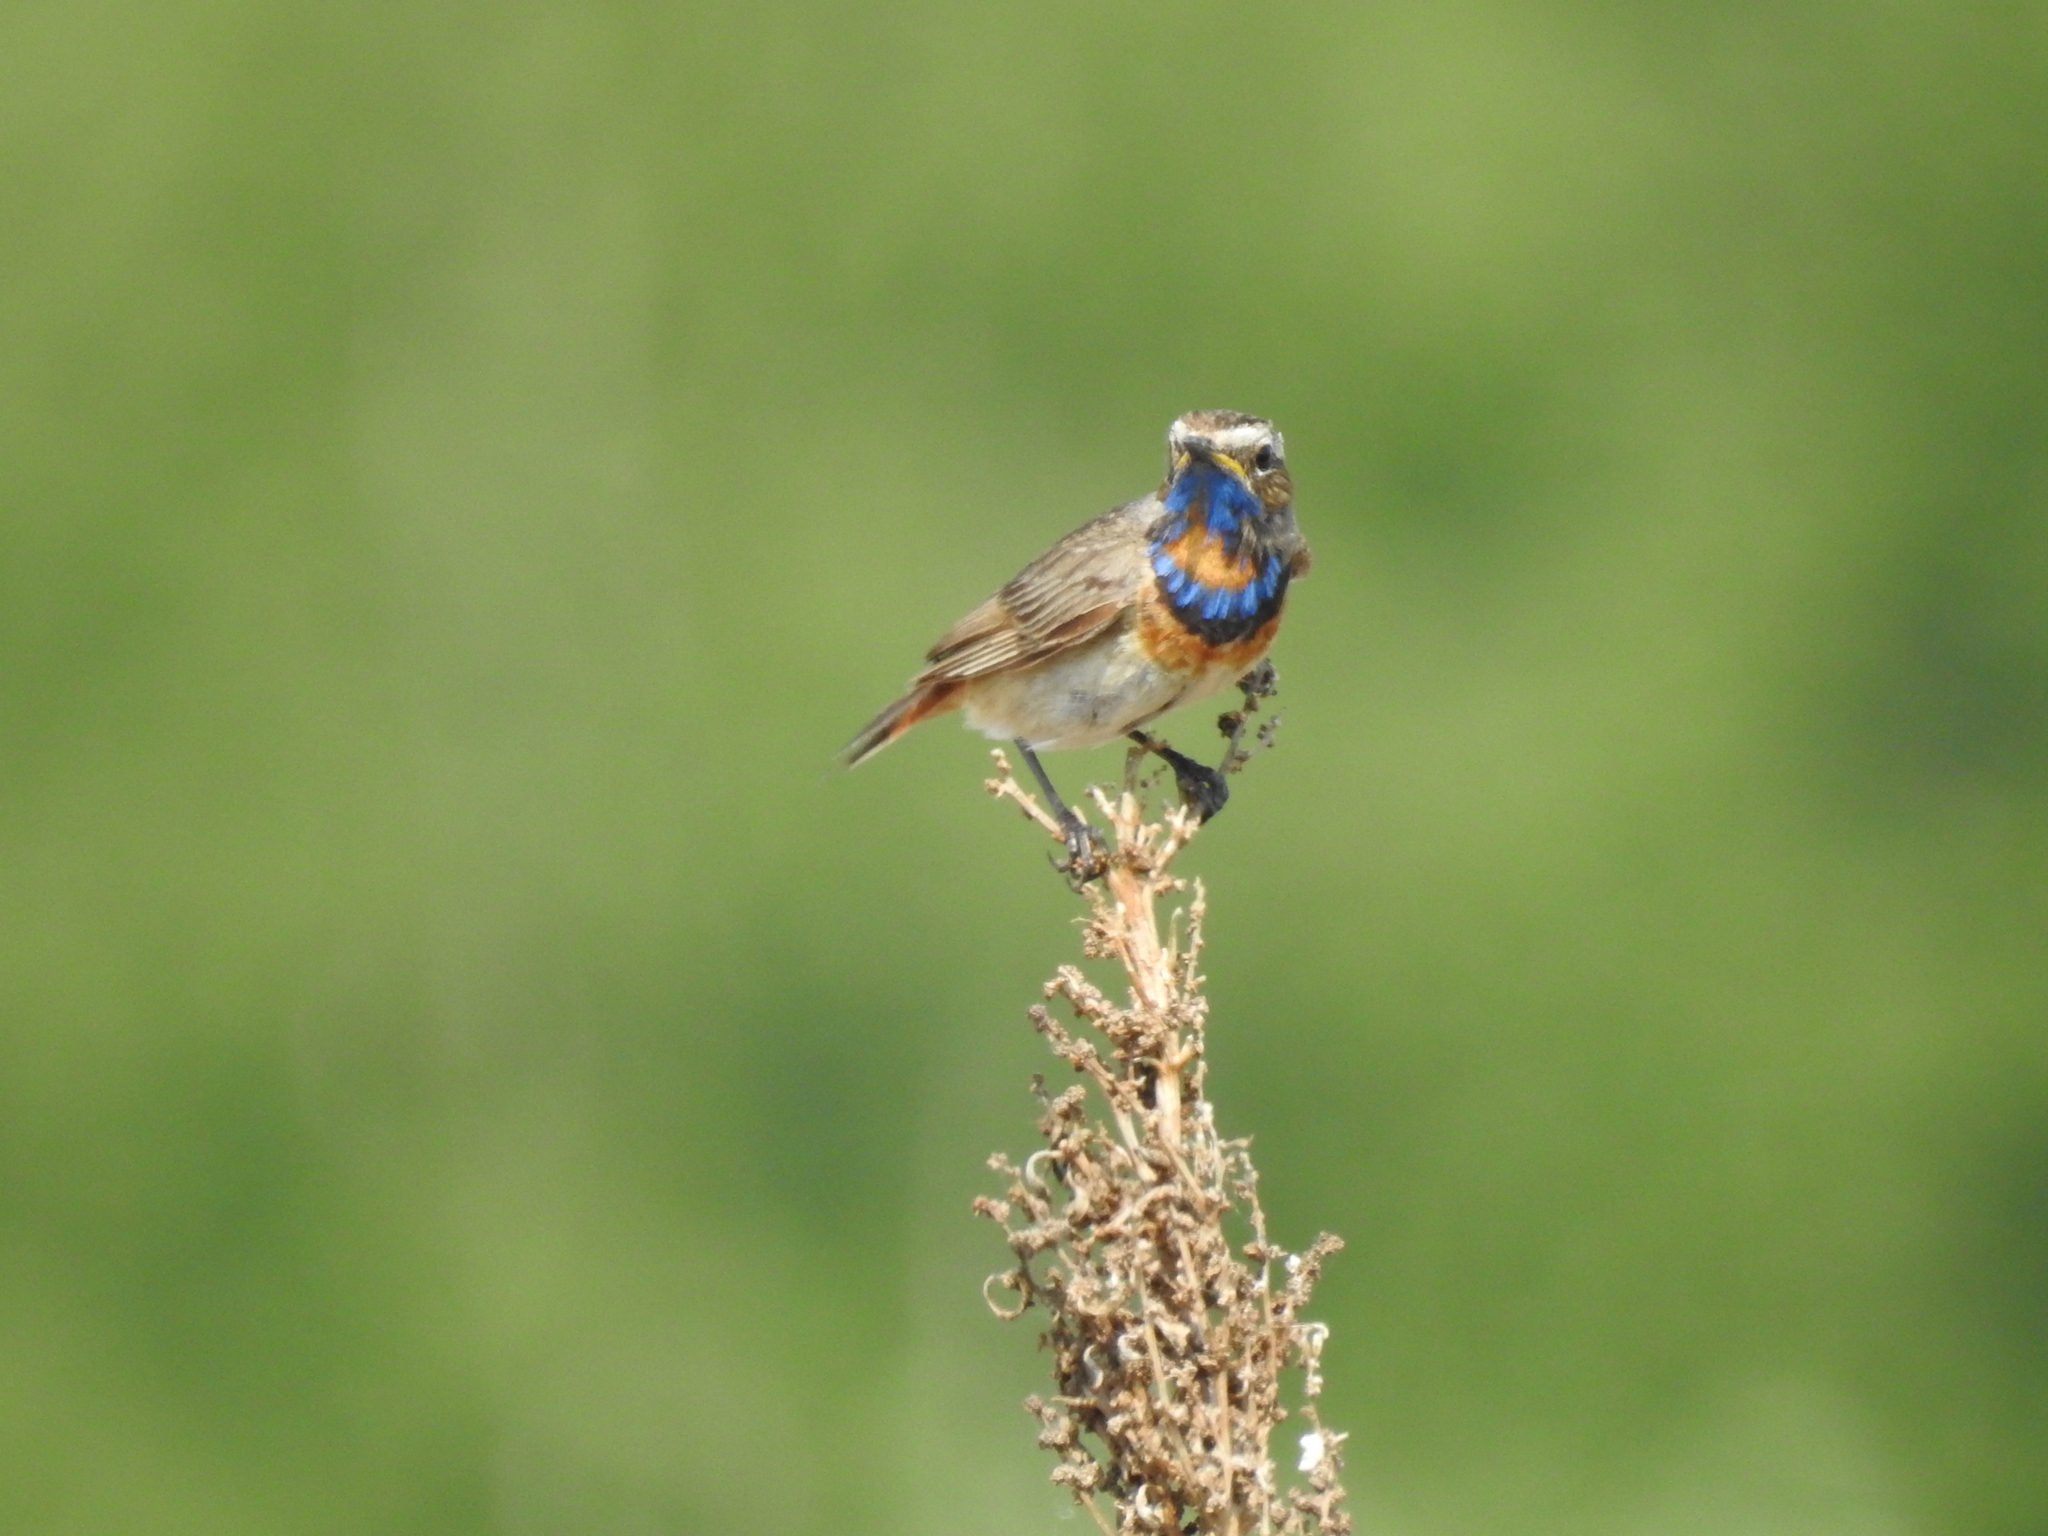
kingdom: Animalia
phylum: Chordata
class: Aves
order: Passeriformes
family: Muscicapidae
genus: Luscinia
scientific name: Luscinia svecica
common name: Bluethroat
